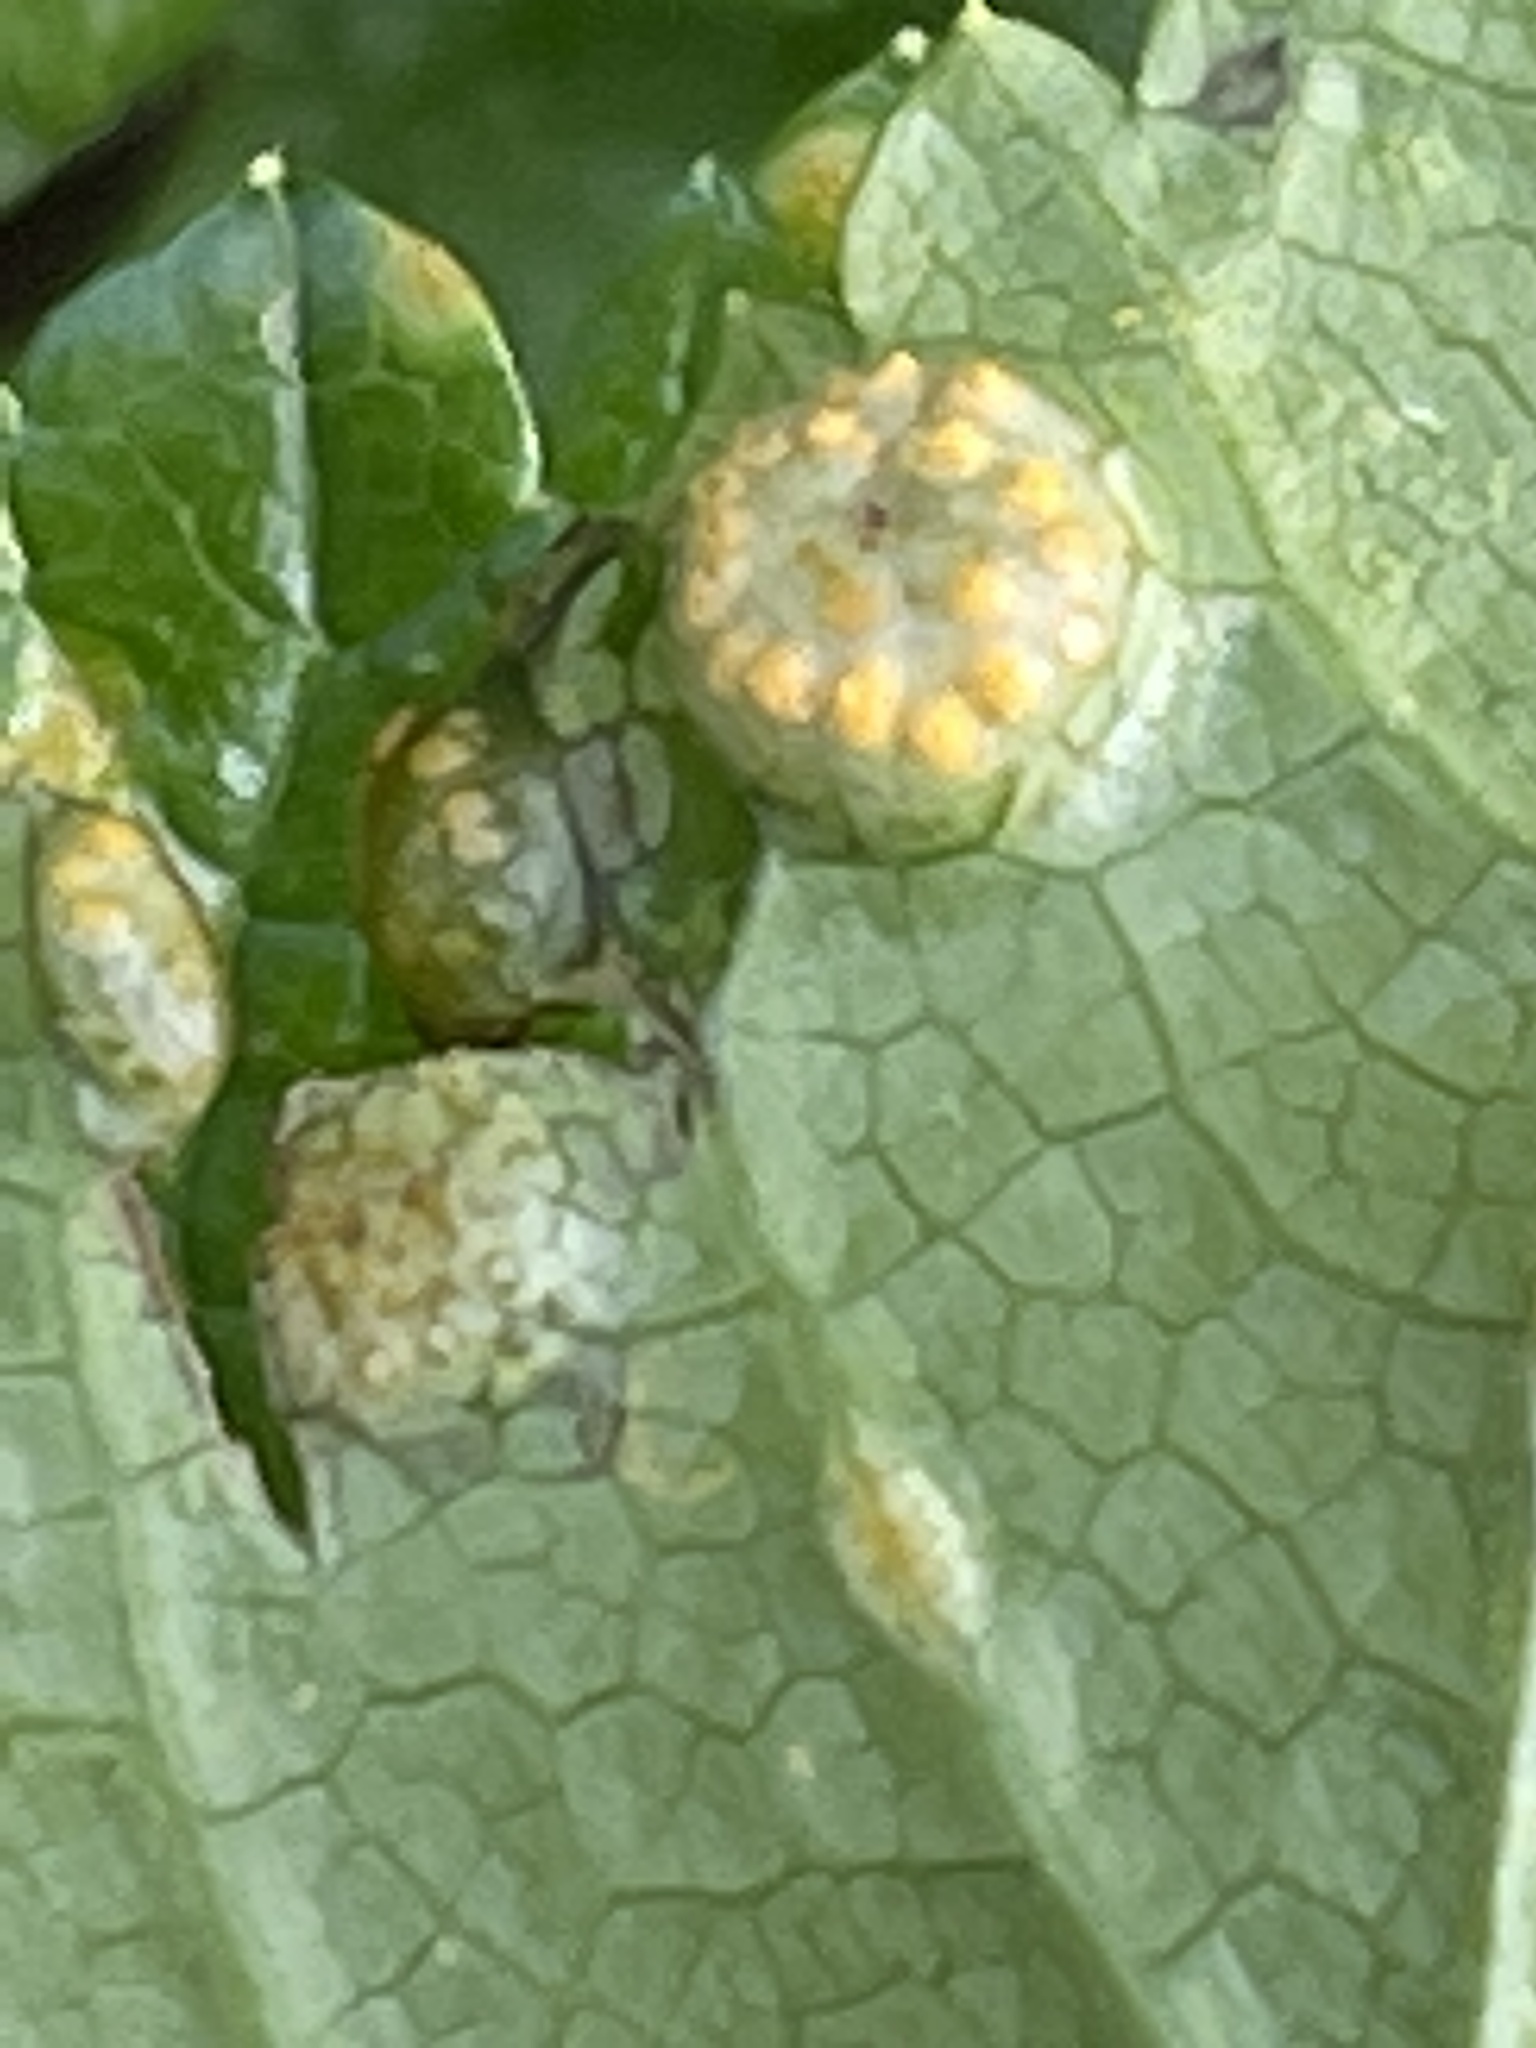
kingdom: Fungi
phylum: Basidiomycota
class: Pucciniomycetes
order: Pucciniales
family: Pucciniaceae
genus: Puccinia
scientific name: Puccinia smyrnii
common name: Alexanders rust
